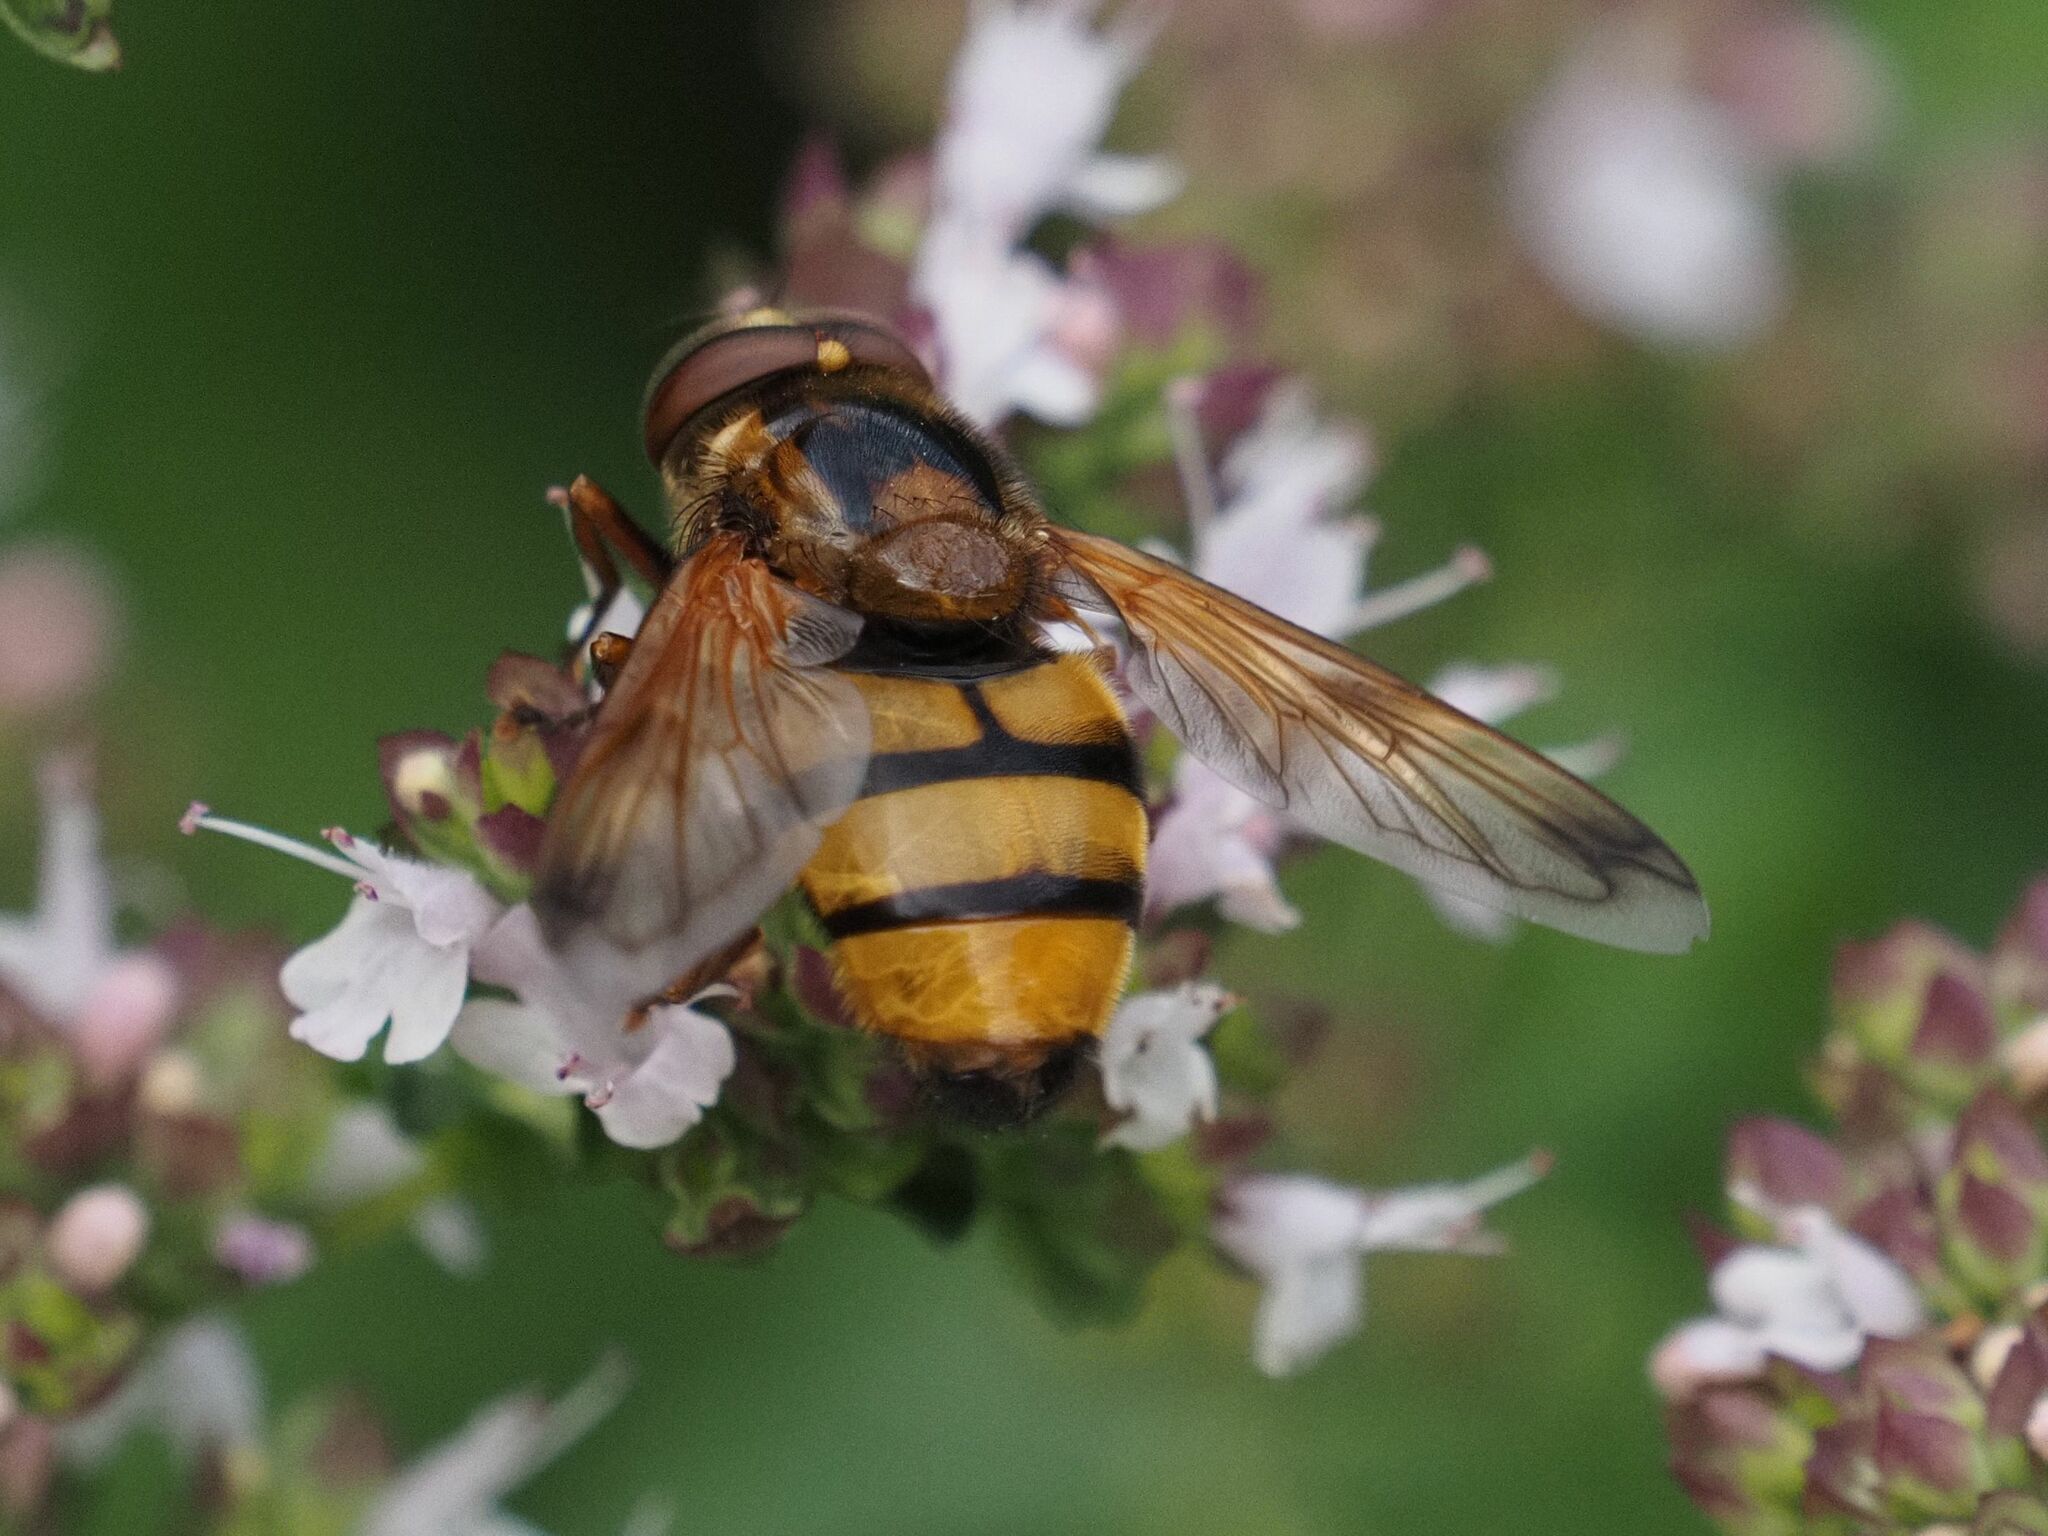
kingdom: Animalia
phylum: Arthropoda
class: Insecta
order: Diptera
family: Syrphidae
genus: Volucella
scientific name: Volucella inanis
